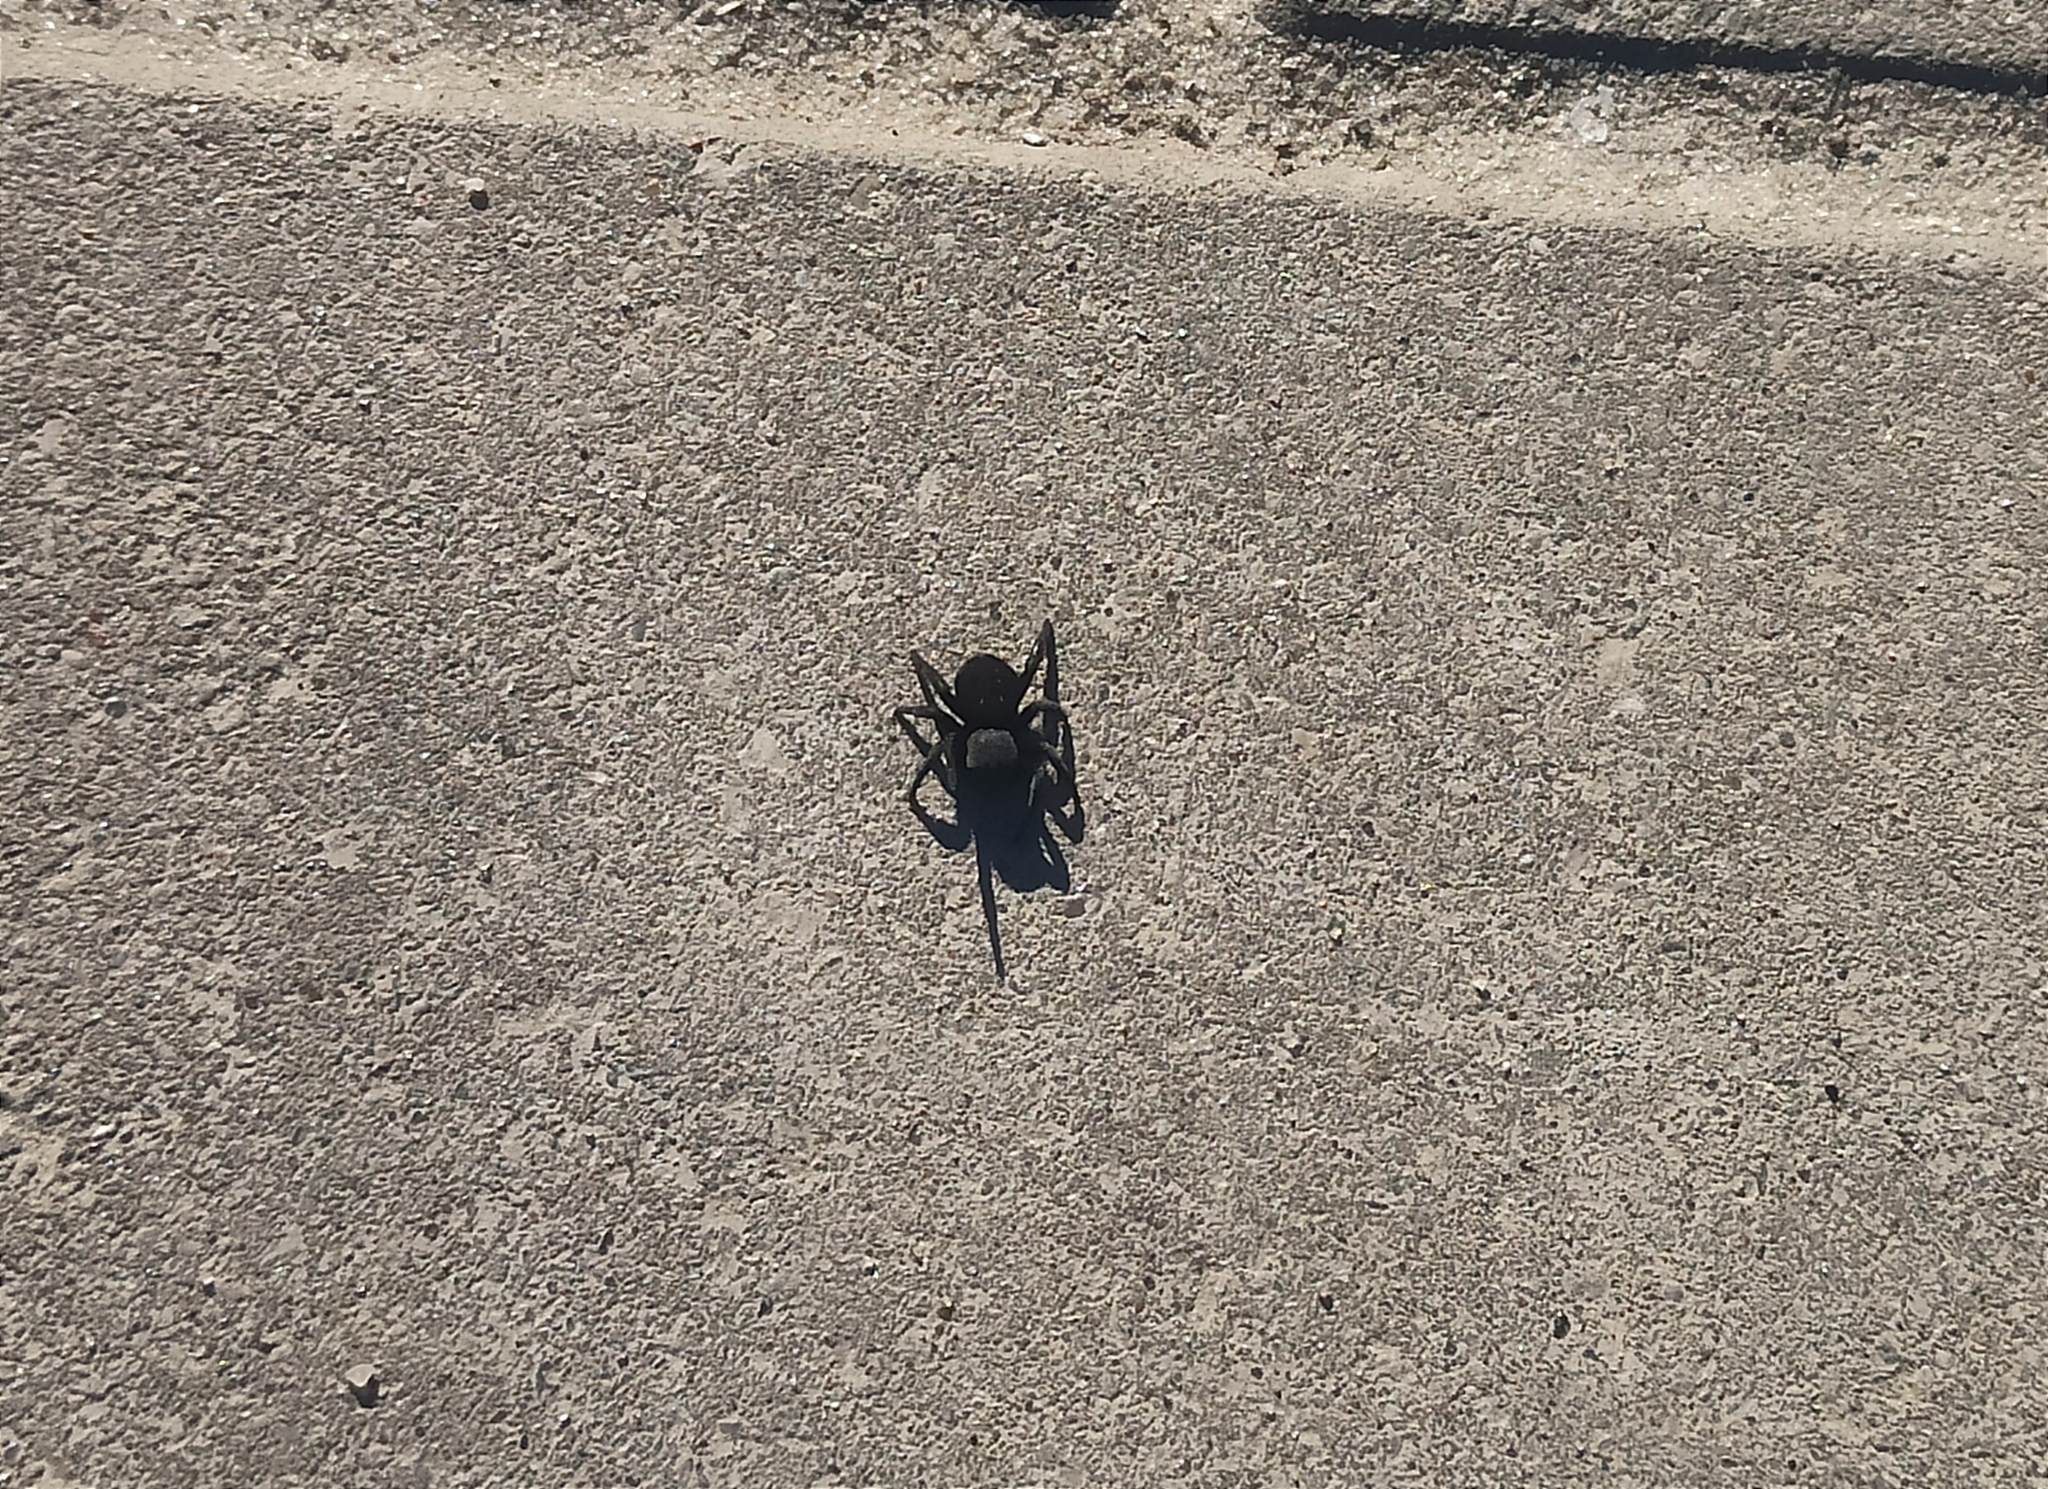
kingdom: Animalia
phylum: Arthropoda
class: Arachnida
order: Araneae
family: Eresidae
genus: Eresus
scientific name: Eresus kollari
